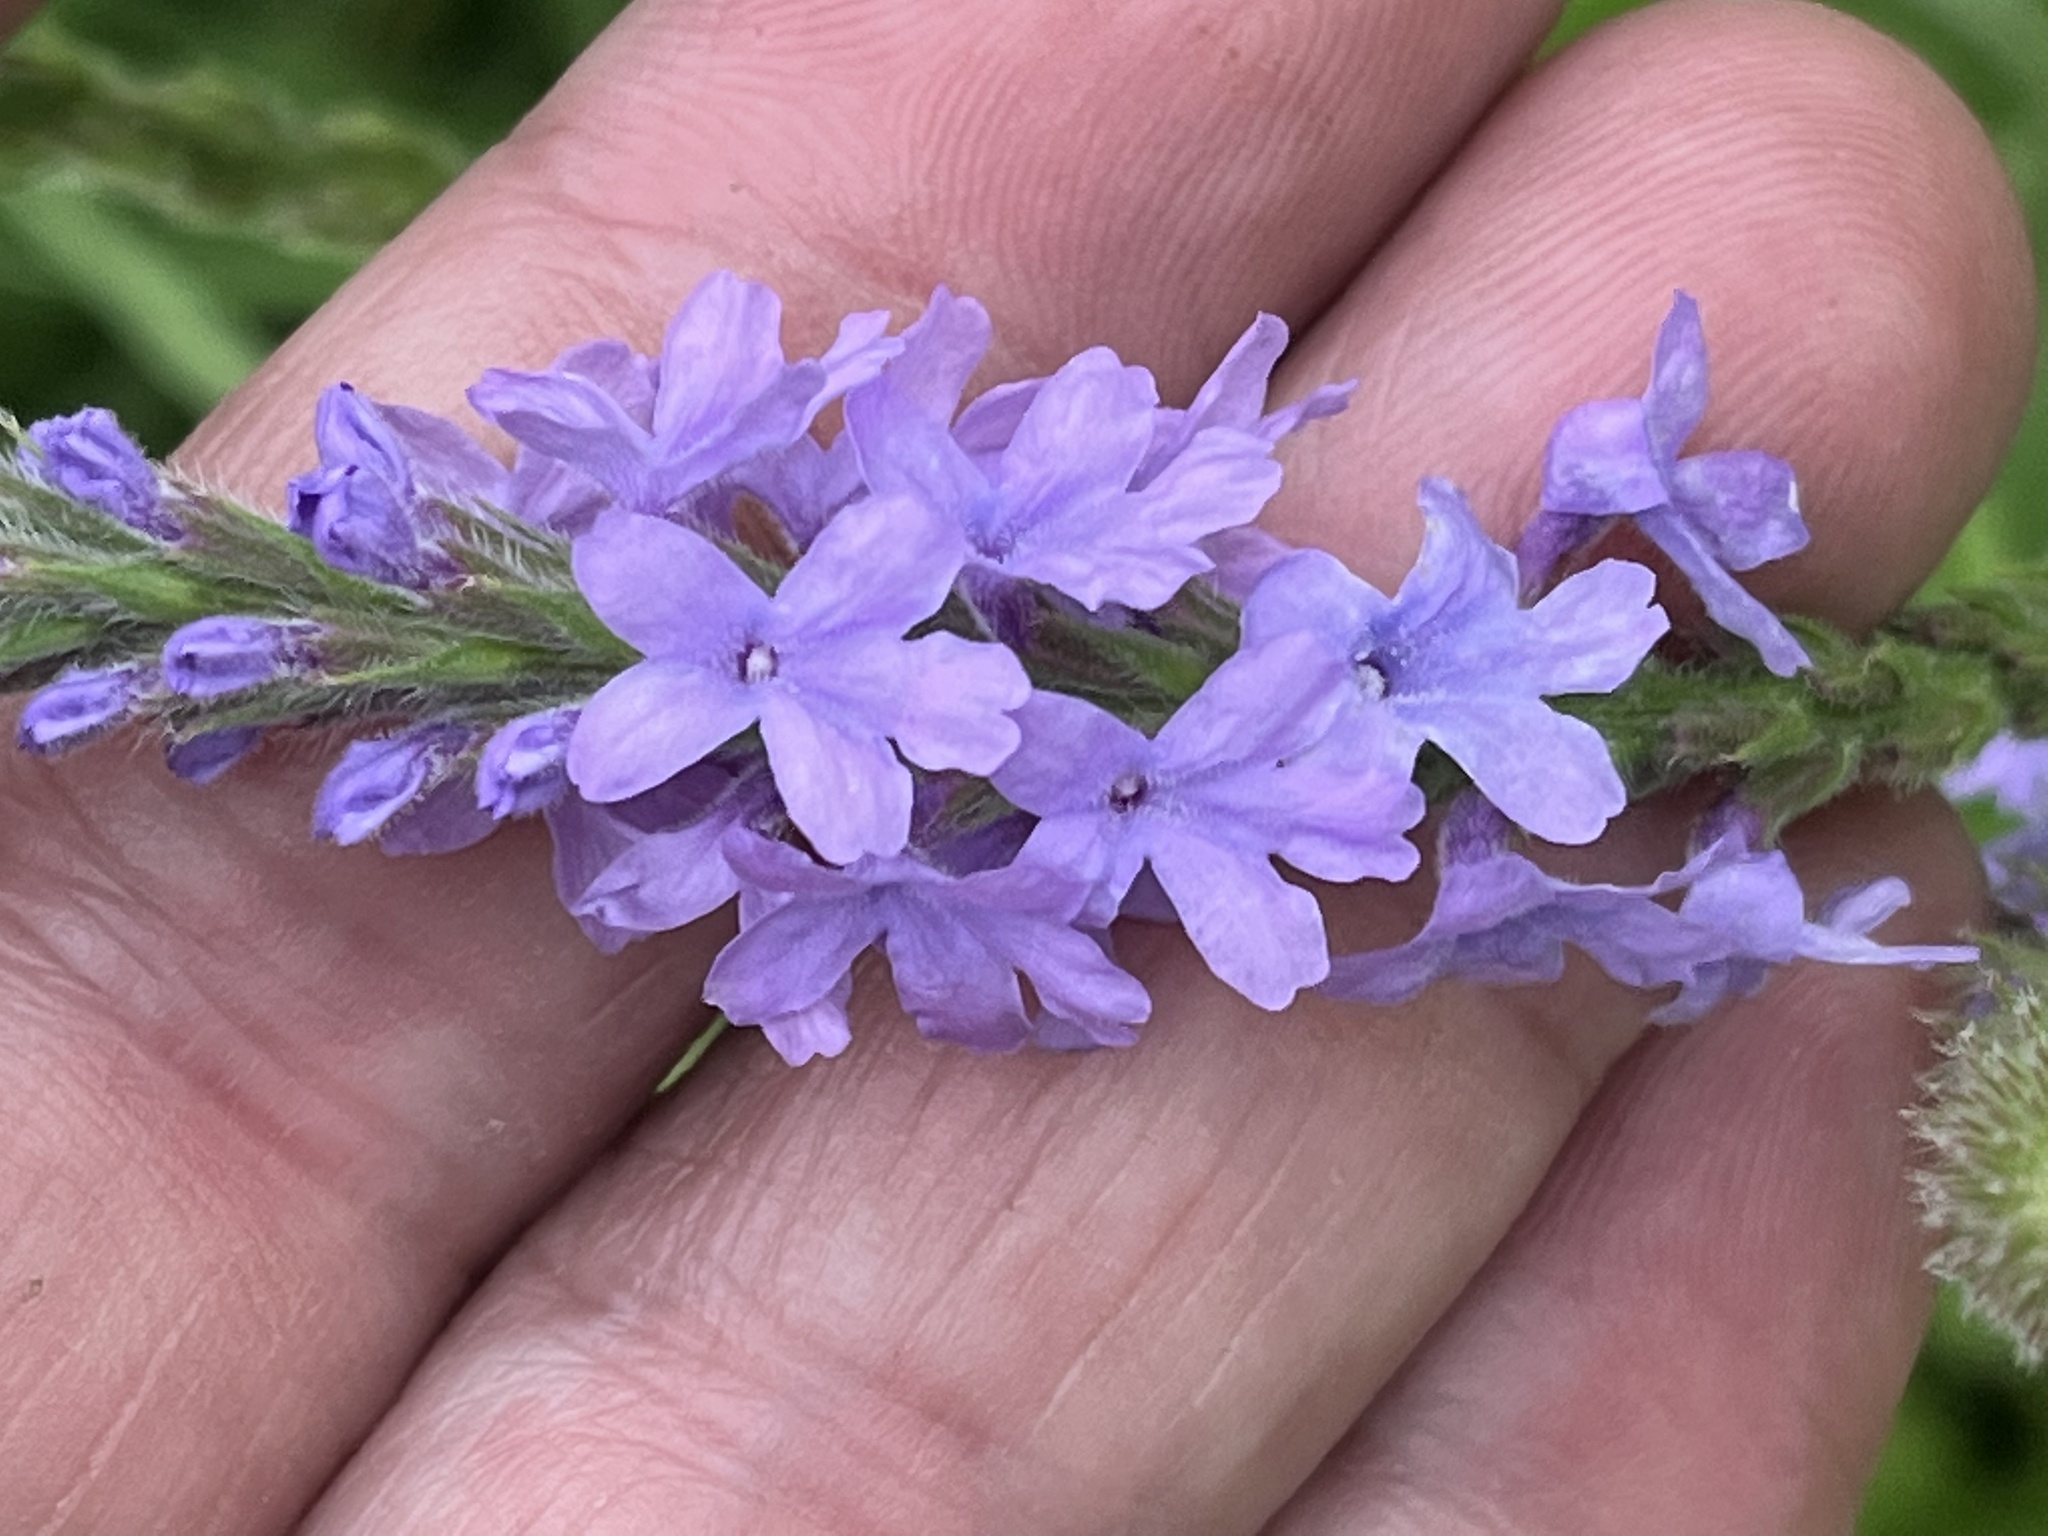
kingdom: Plantae
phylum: Tracheophyta
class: Magnoliopsida
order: Lamiales
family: Verbenaceae
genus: Verbena
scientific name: Verbena stricta
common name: Hoary vervain
